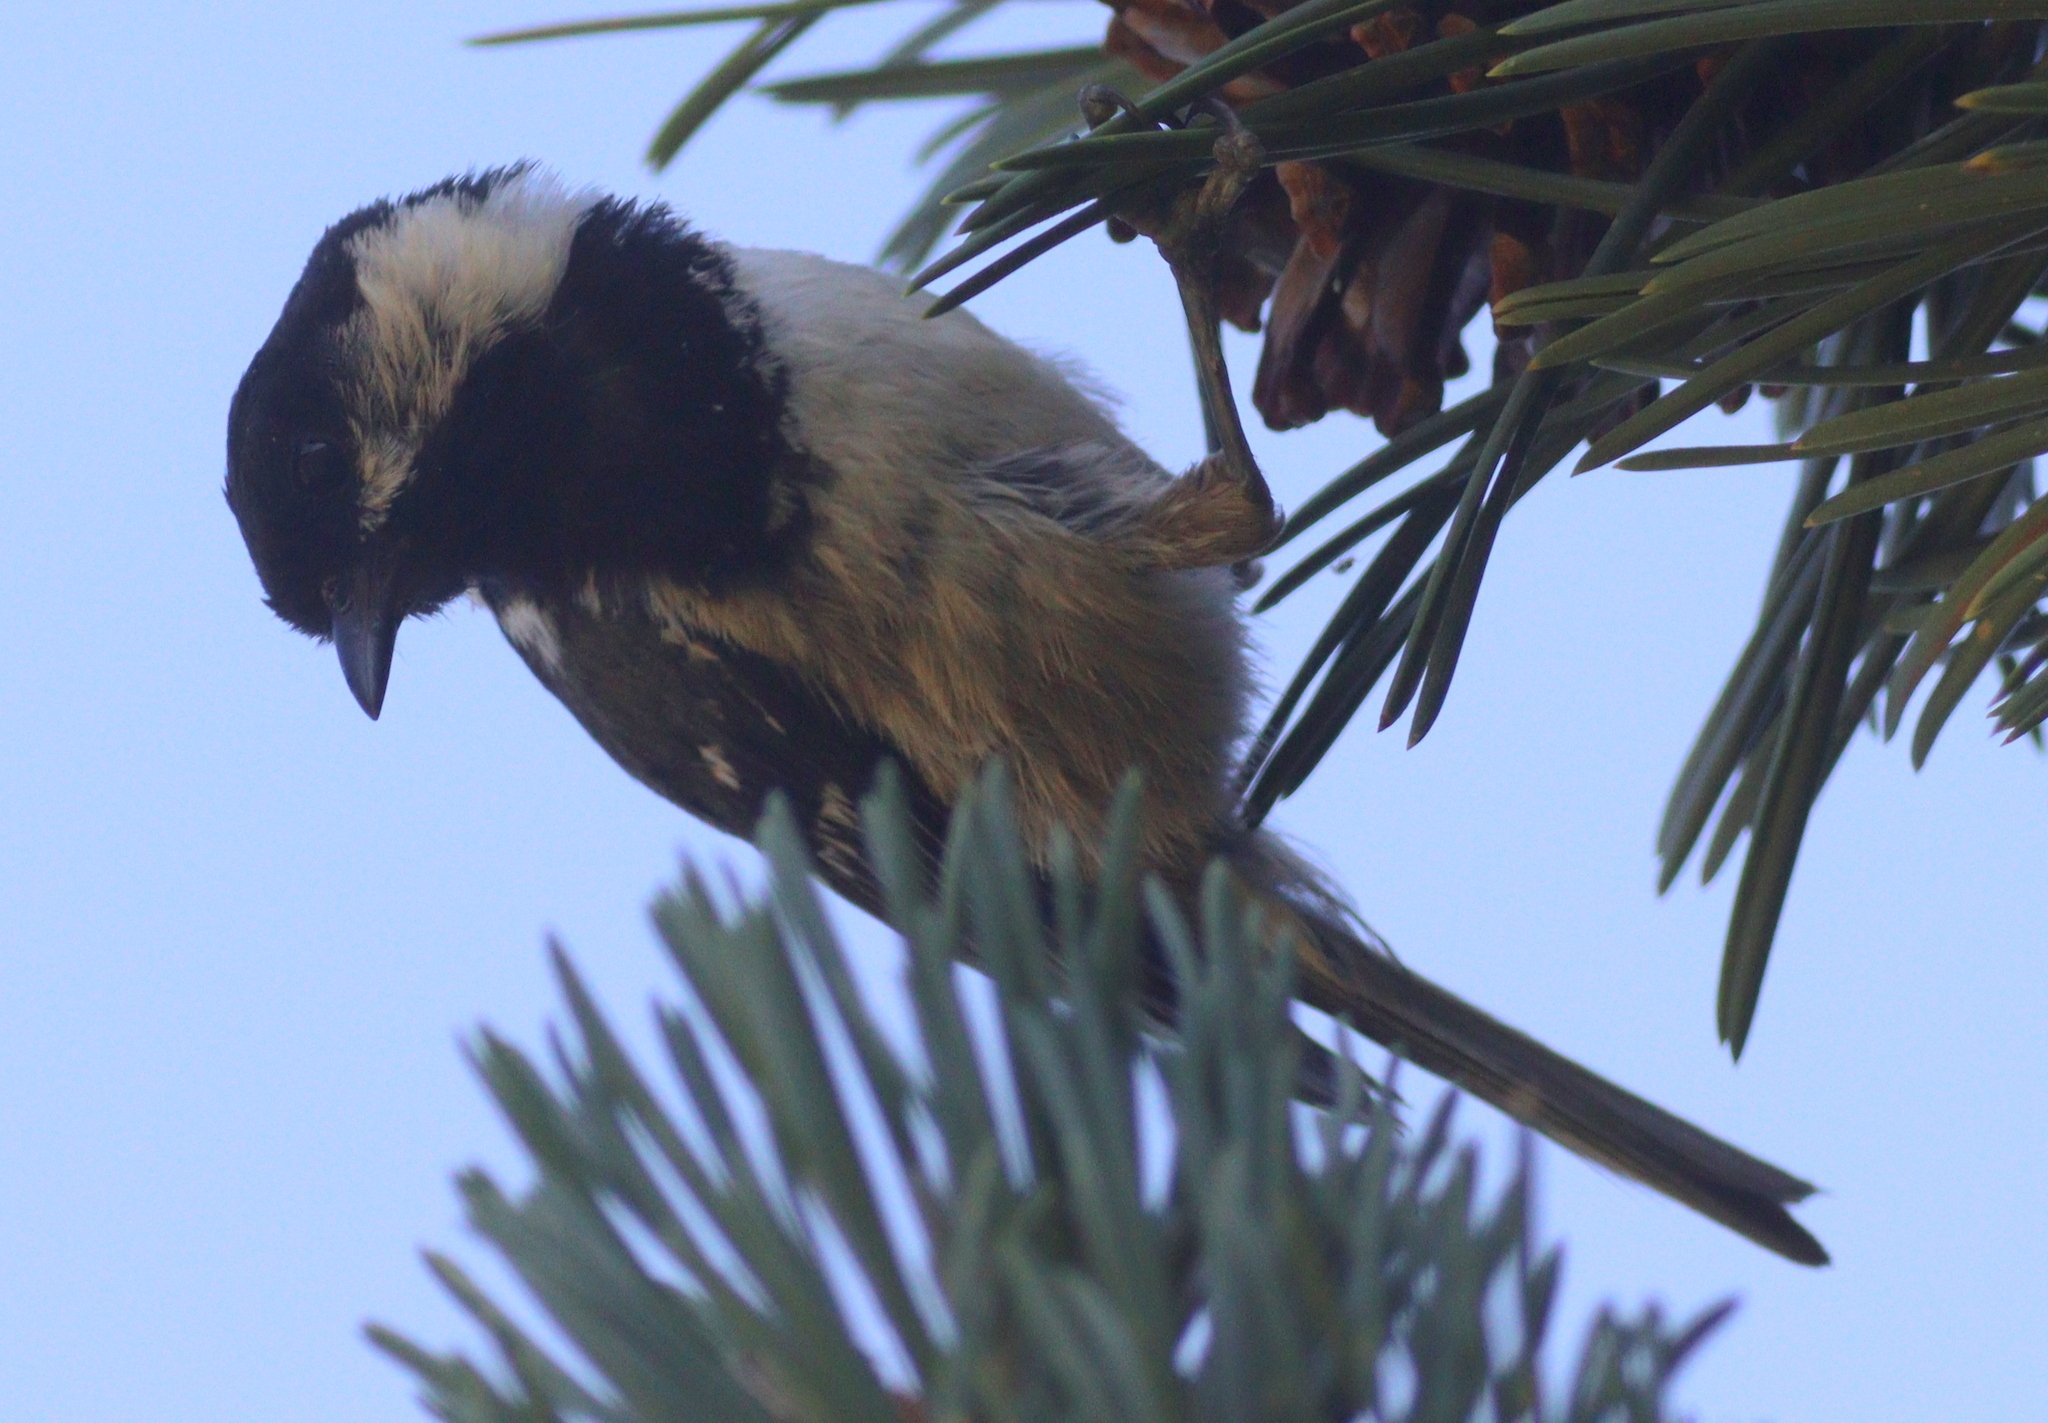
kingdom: Animalia
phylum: Chordata
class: Aves
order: Passeriformes
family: Paridae
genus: Periparus
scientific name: Periparus ater
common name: Coal tit
